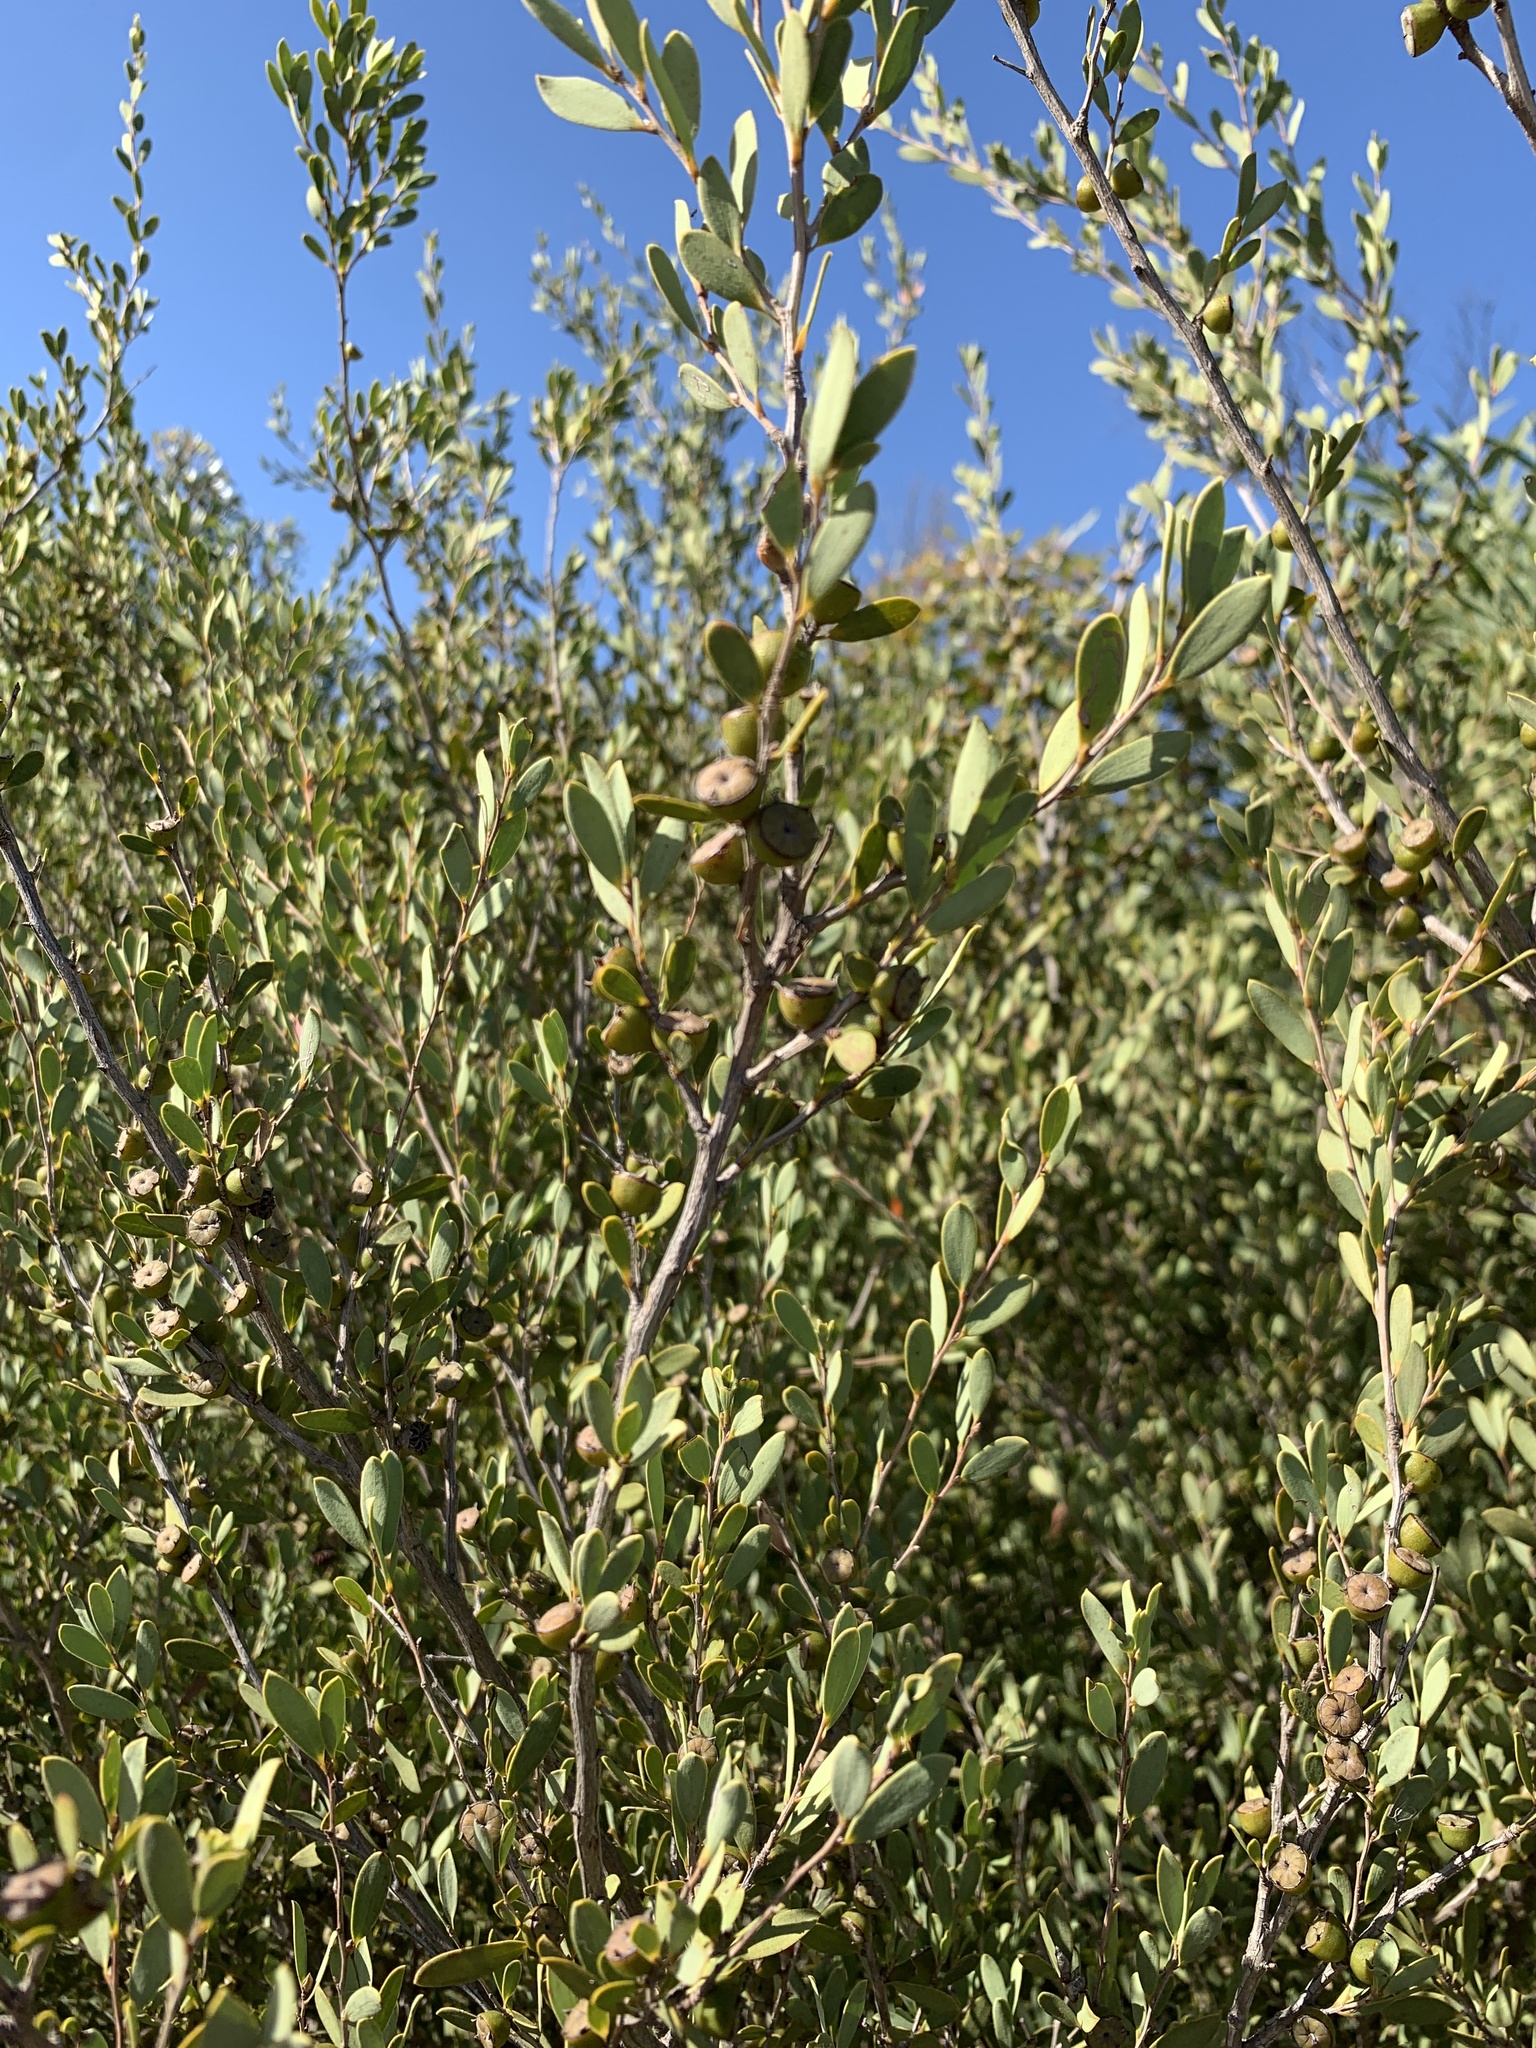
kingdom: Plantae
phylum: Tracheophyta
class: Magnoliopsida
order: Myrtales
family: Myrtaceae
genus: Leptospermum
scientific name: Leptospermum laevigatum
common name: Australian teatree
